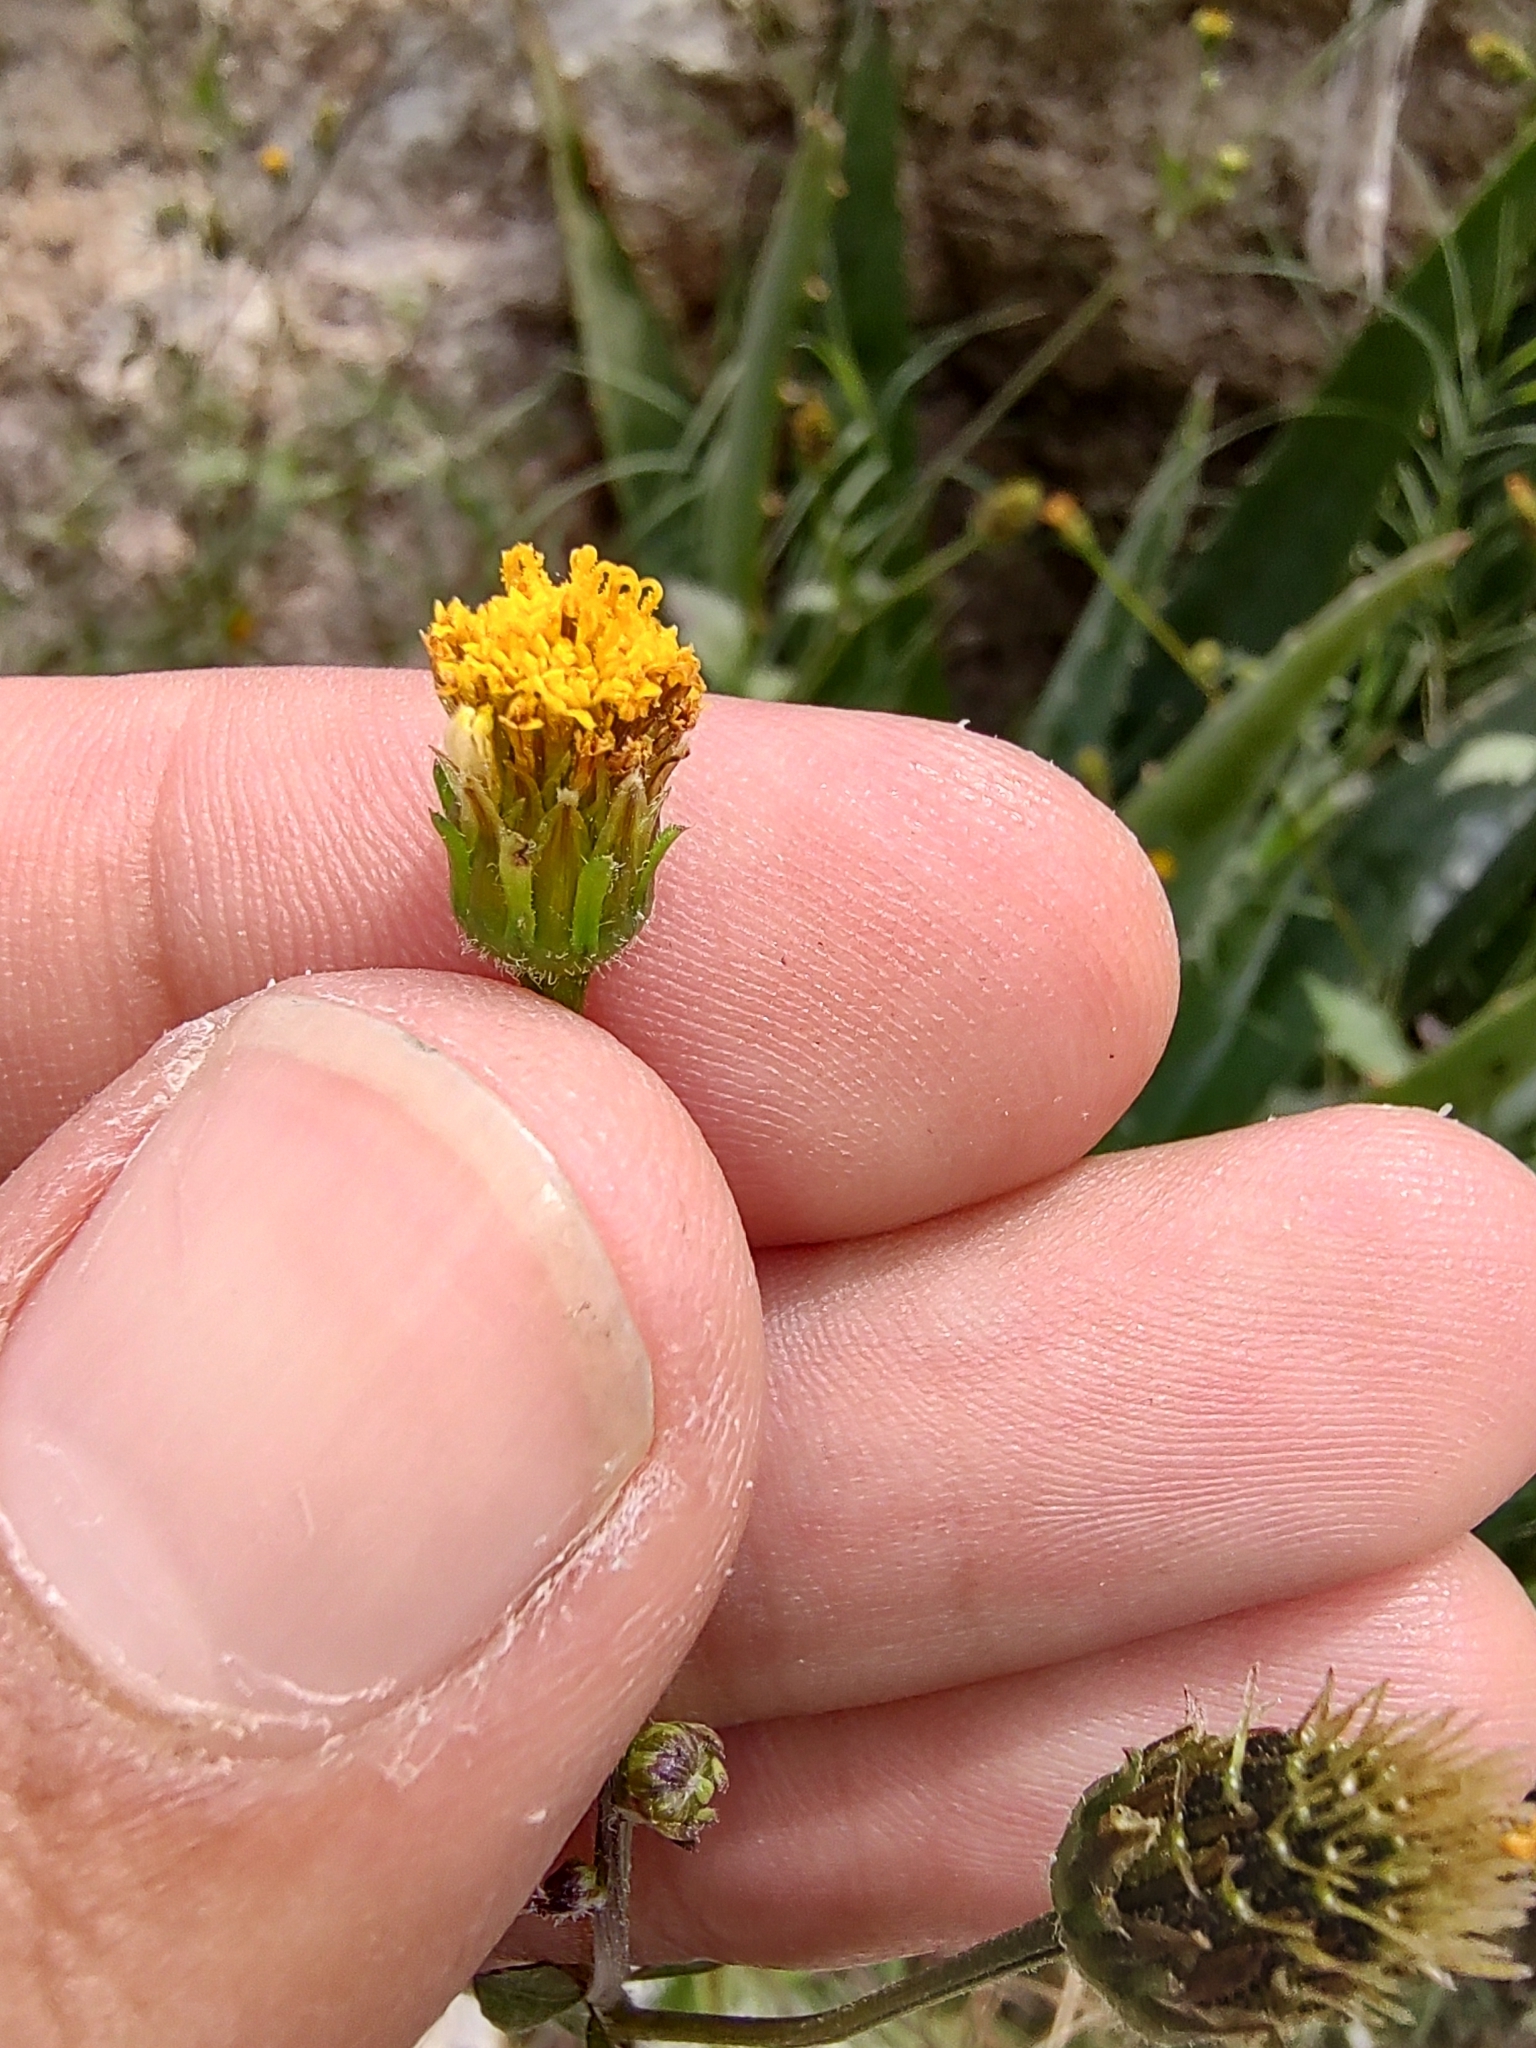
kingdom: Plantae
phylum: Tracheophyta
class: Magnoliopsida
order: Asterales
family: Asteraceae
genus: Bidens
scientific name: Bidens pilosa
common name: Black-jack
